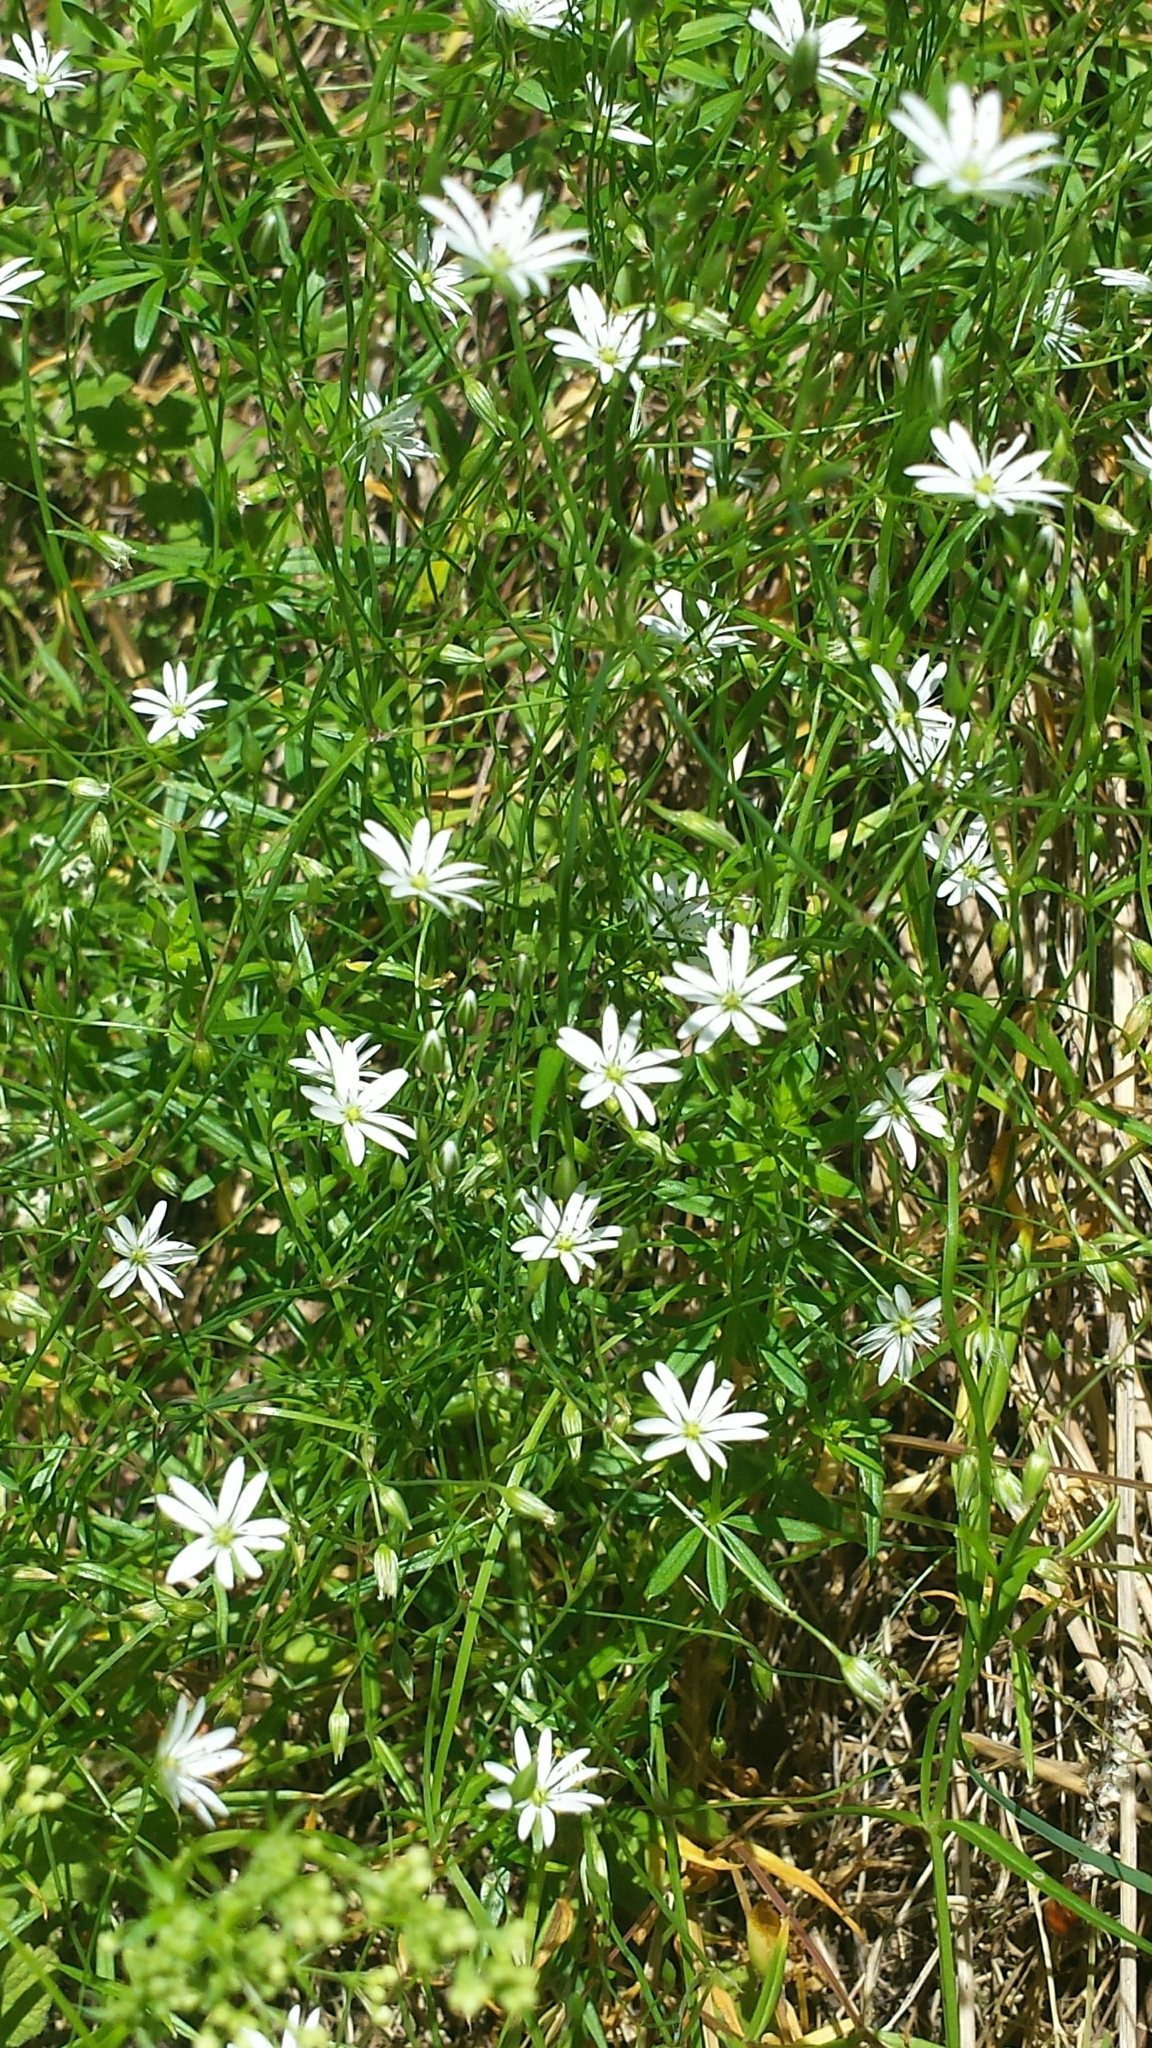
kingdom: Plantae
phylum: Tracheophyta
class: Magnoliopsida
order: Caryophyllales
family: Caryophyllaceae
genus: Stellaria
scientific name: Stellaria graminea
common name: Grass-like starwort
